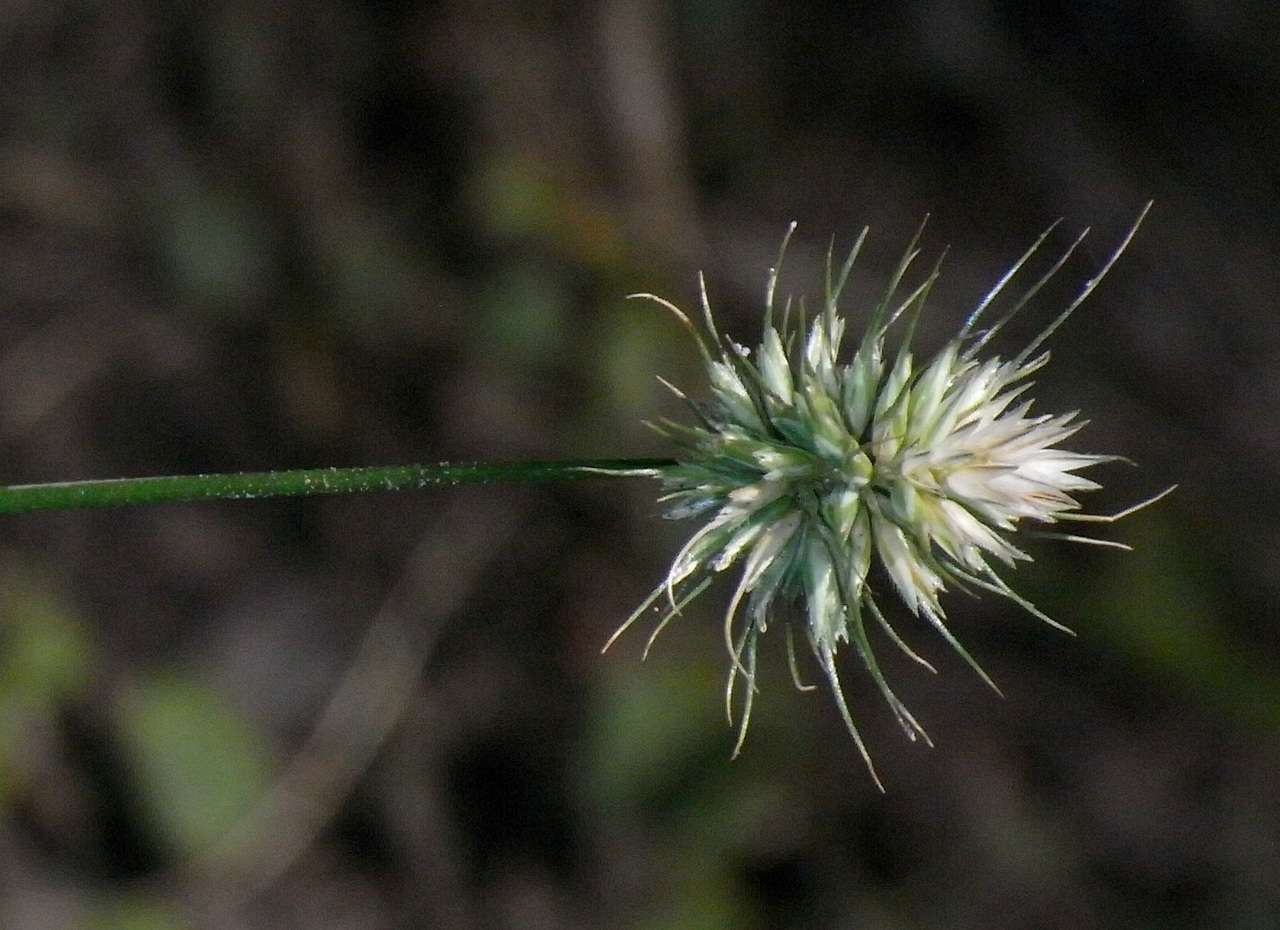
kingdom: Plantae
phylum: Tracheophyta
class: Liliopsida
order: Poales
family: Poaceae
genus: Echinopogon
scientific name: Echinopogon ovatus
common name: Hedgehog-grass
